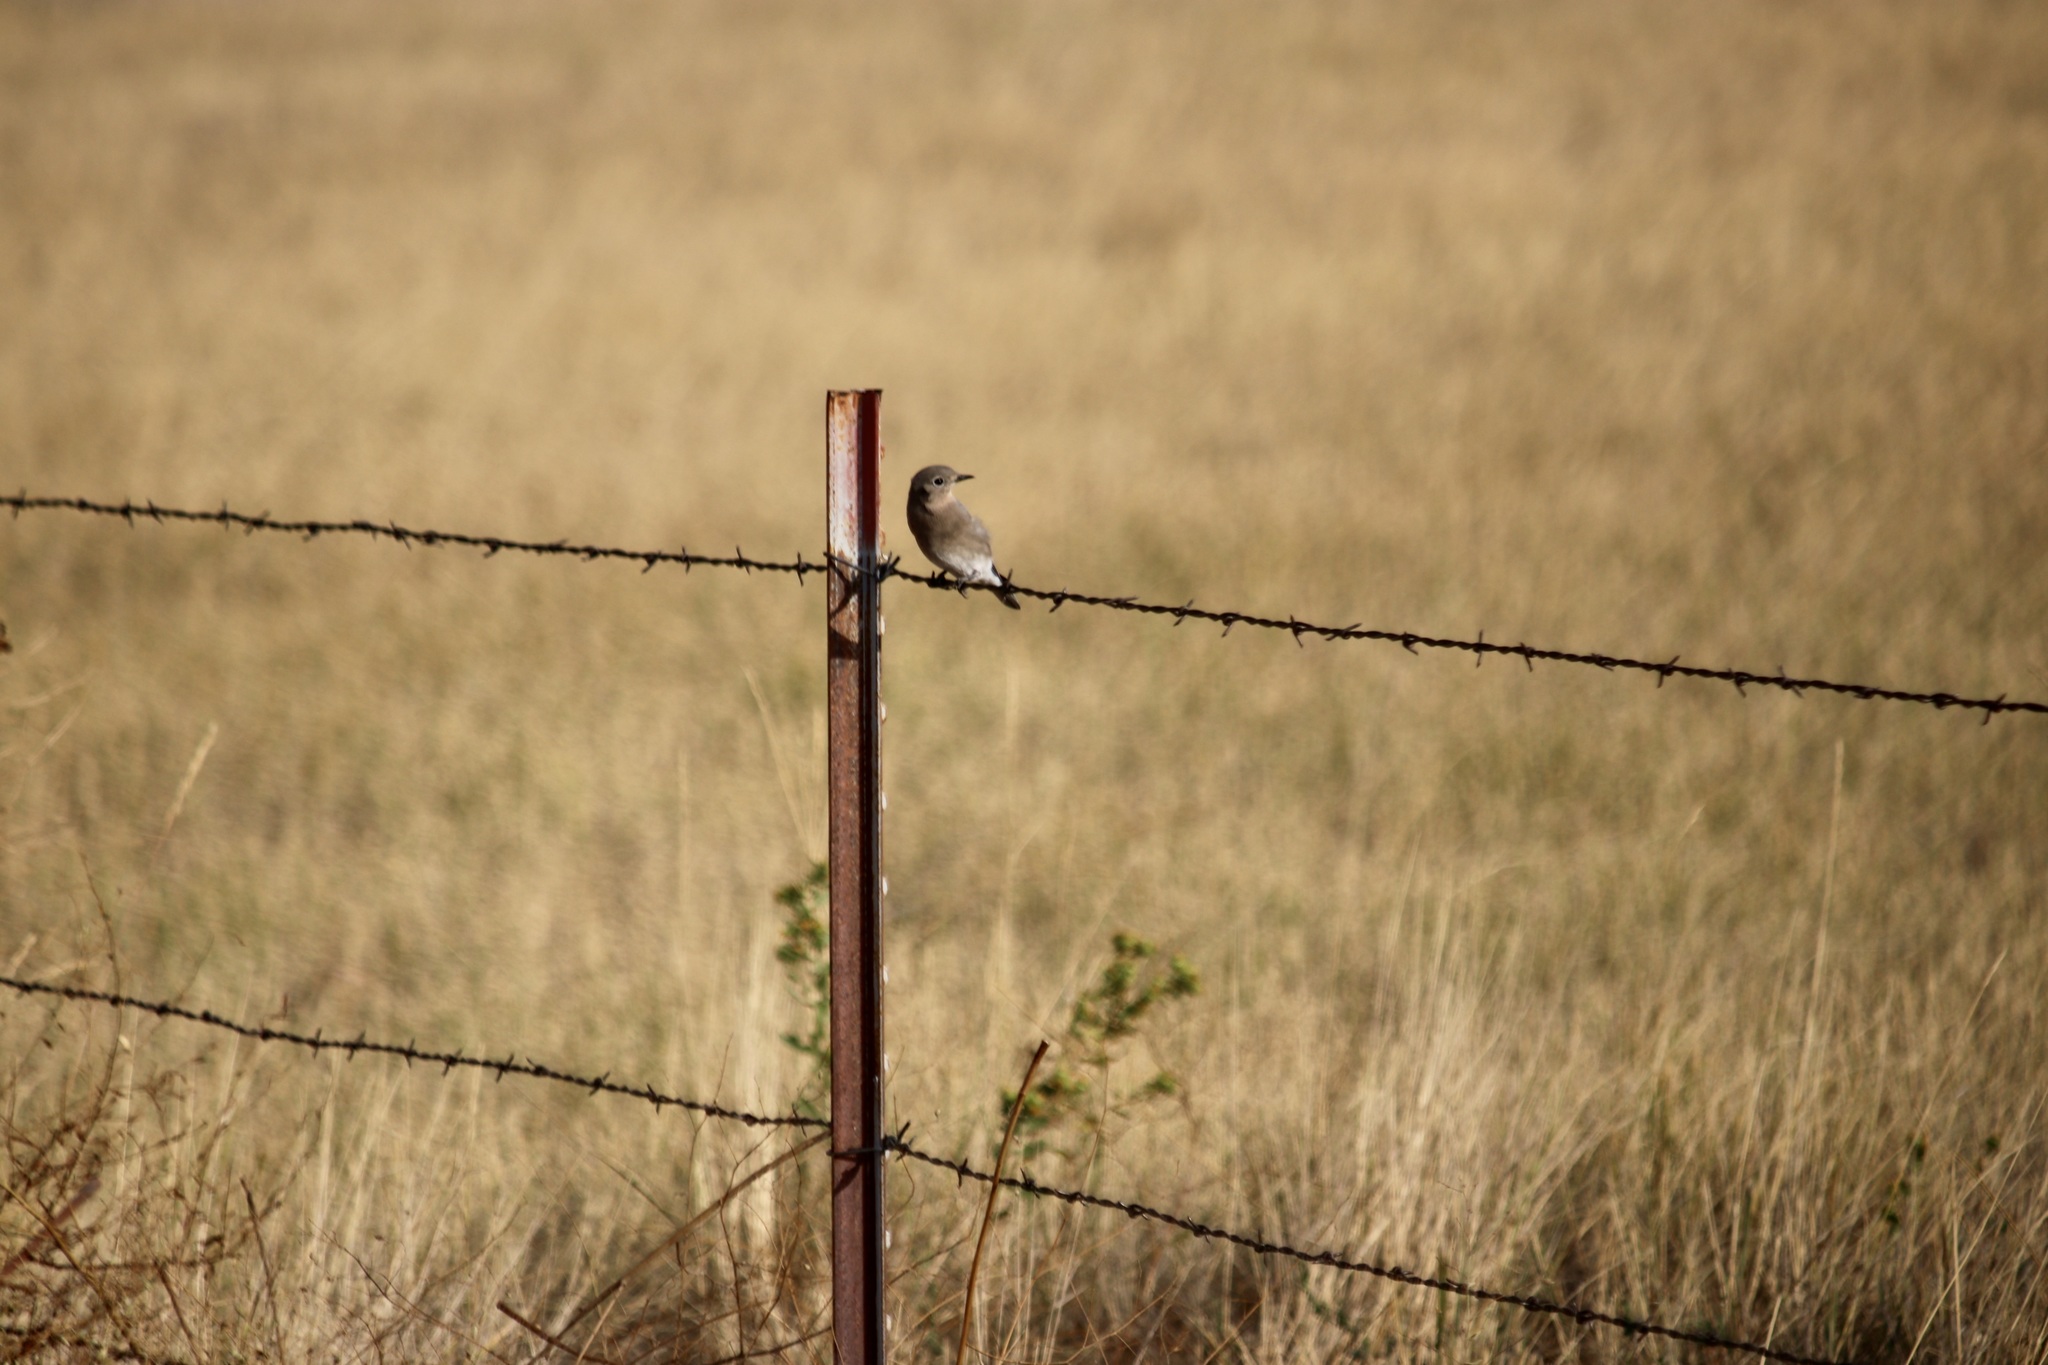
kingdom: Animalia
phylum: Chordata
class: Aves
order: Passeriformes
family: Turdidae
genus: Sialia
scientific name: Sialia currucoides
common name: Mountain bluebird
